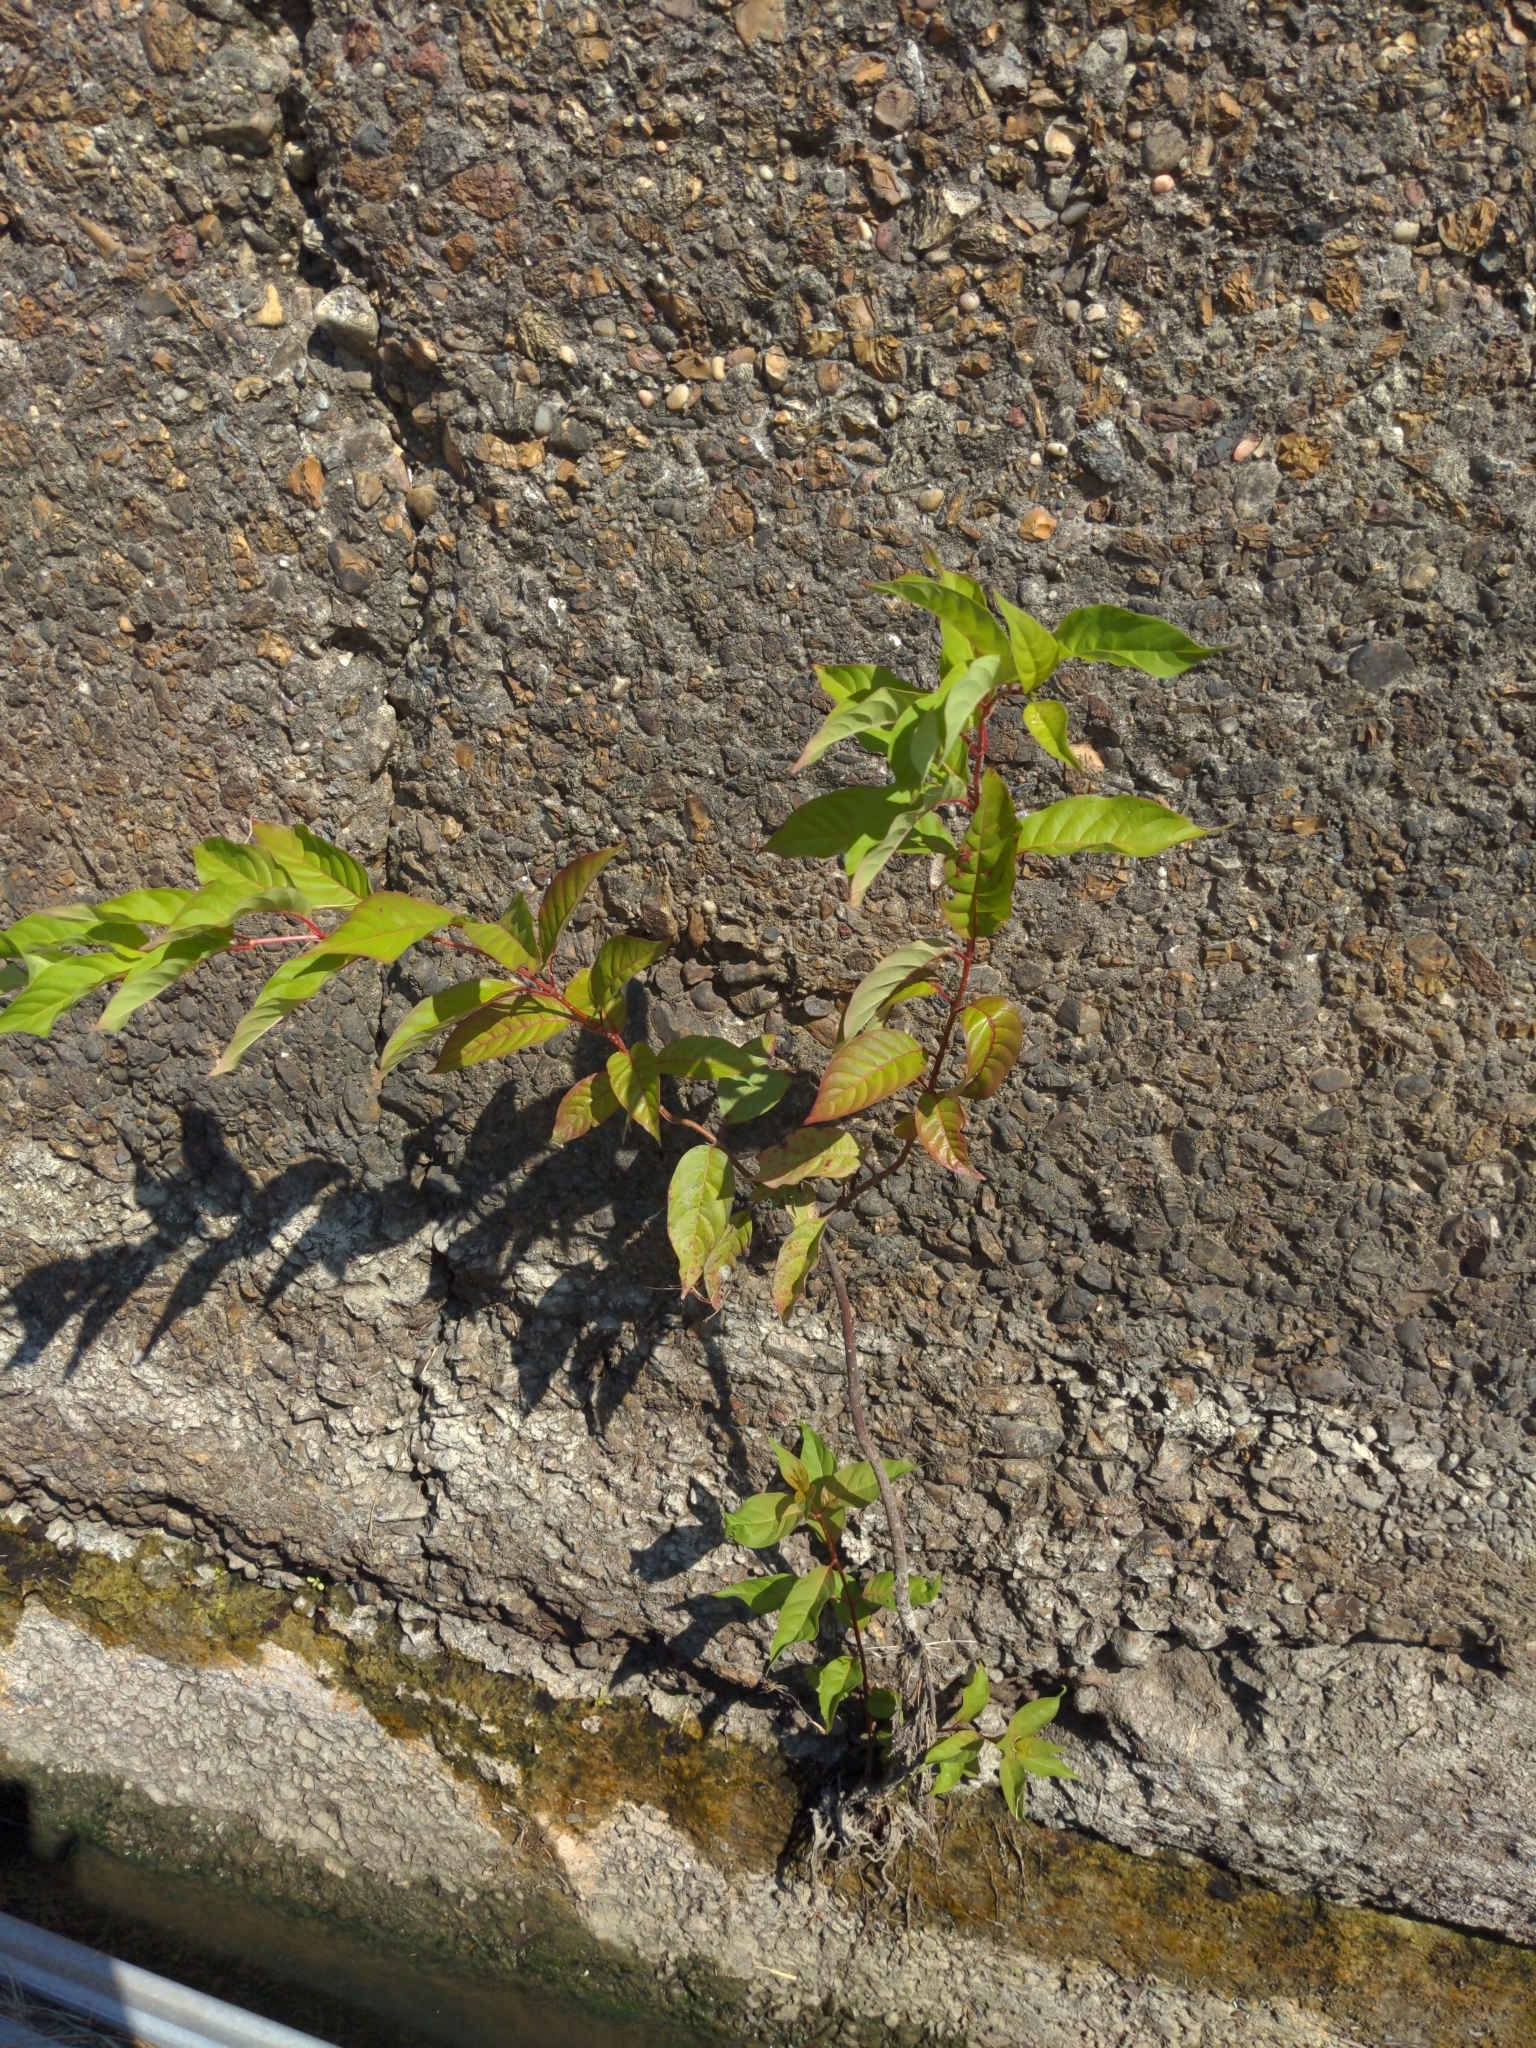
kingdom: Plantae
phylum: Tracheophyta
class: Magnoliopsida
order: Gentianales
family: Rubiaceae
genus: Cephalanthus
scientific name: Cephalanthus occidentalis
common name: Button-willow
